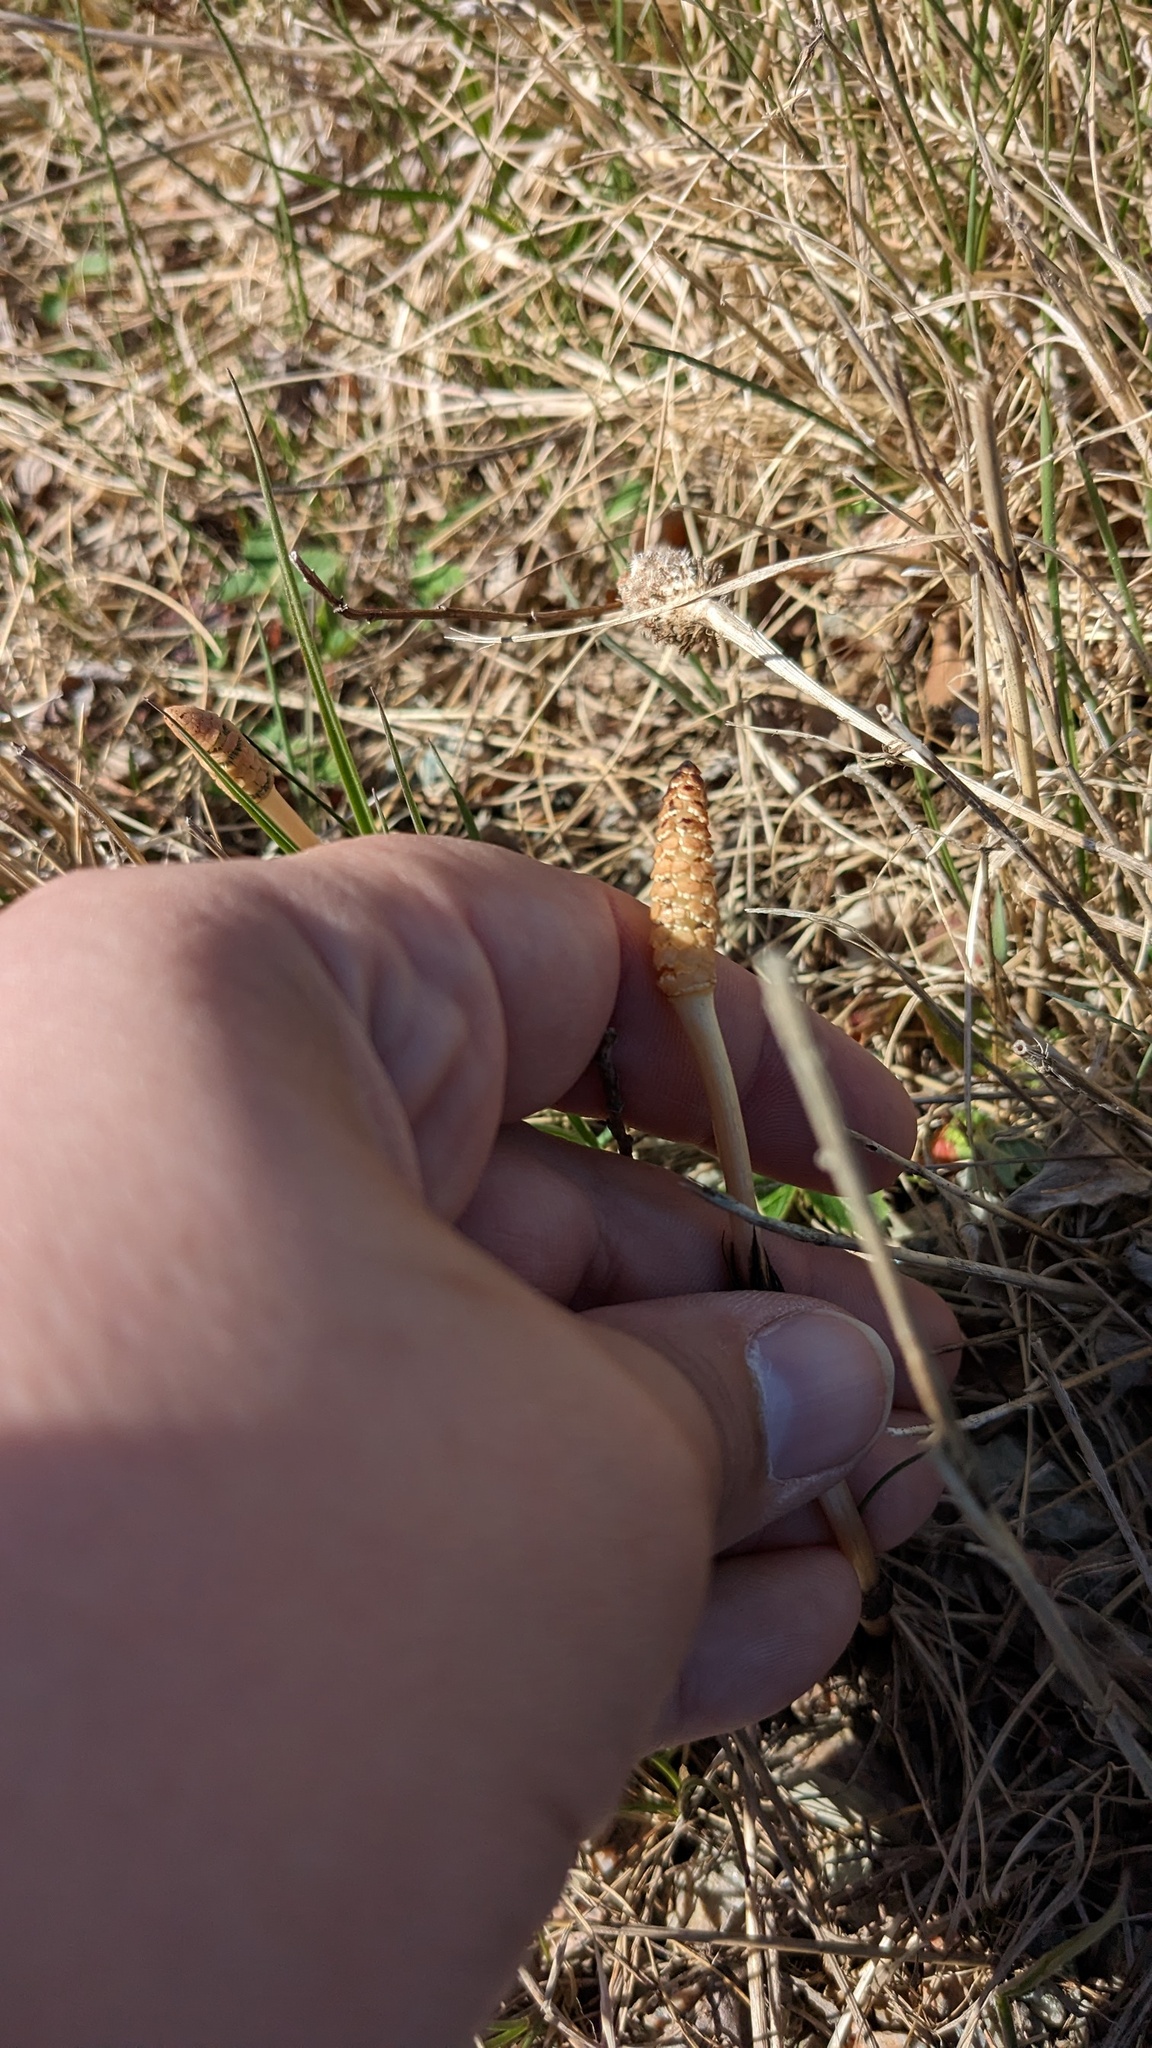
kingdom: Plantae
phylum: Tracheophyta
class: Polypodiopsida
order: Equisetales
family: Equisetaceae
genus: Equisetum
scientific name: Equisetum arvense
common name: Field horsetail
